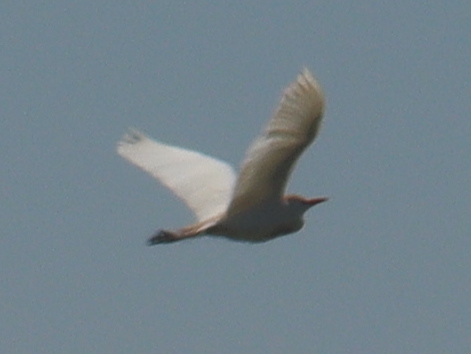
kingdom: Animalia
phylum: Chordata
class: Aves
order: Pelecaniformes
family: Ardeidae
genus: Bubulcus
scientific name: Bubulcus ibis
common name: Cattle egret
